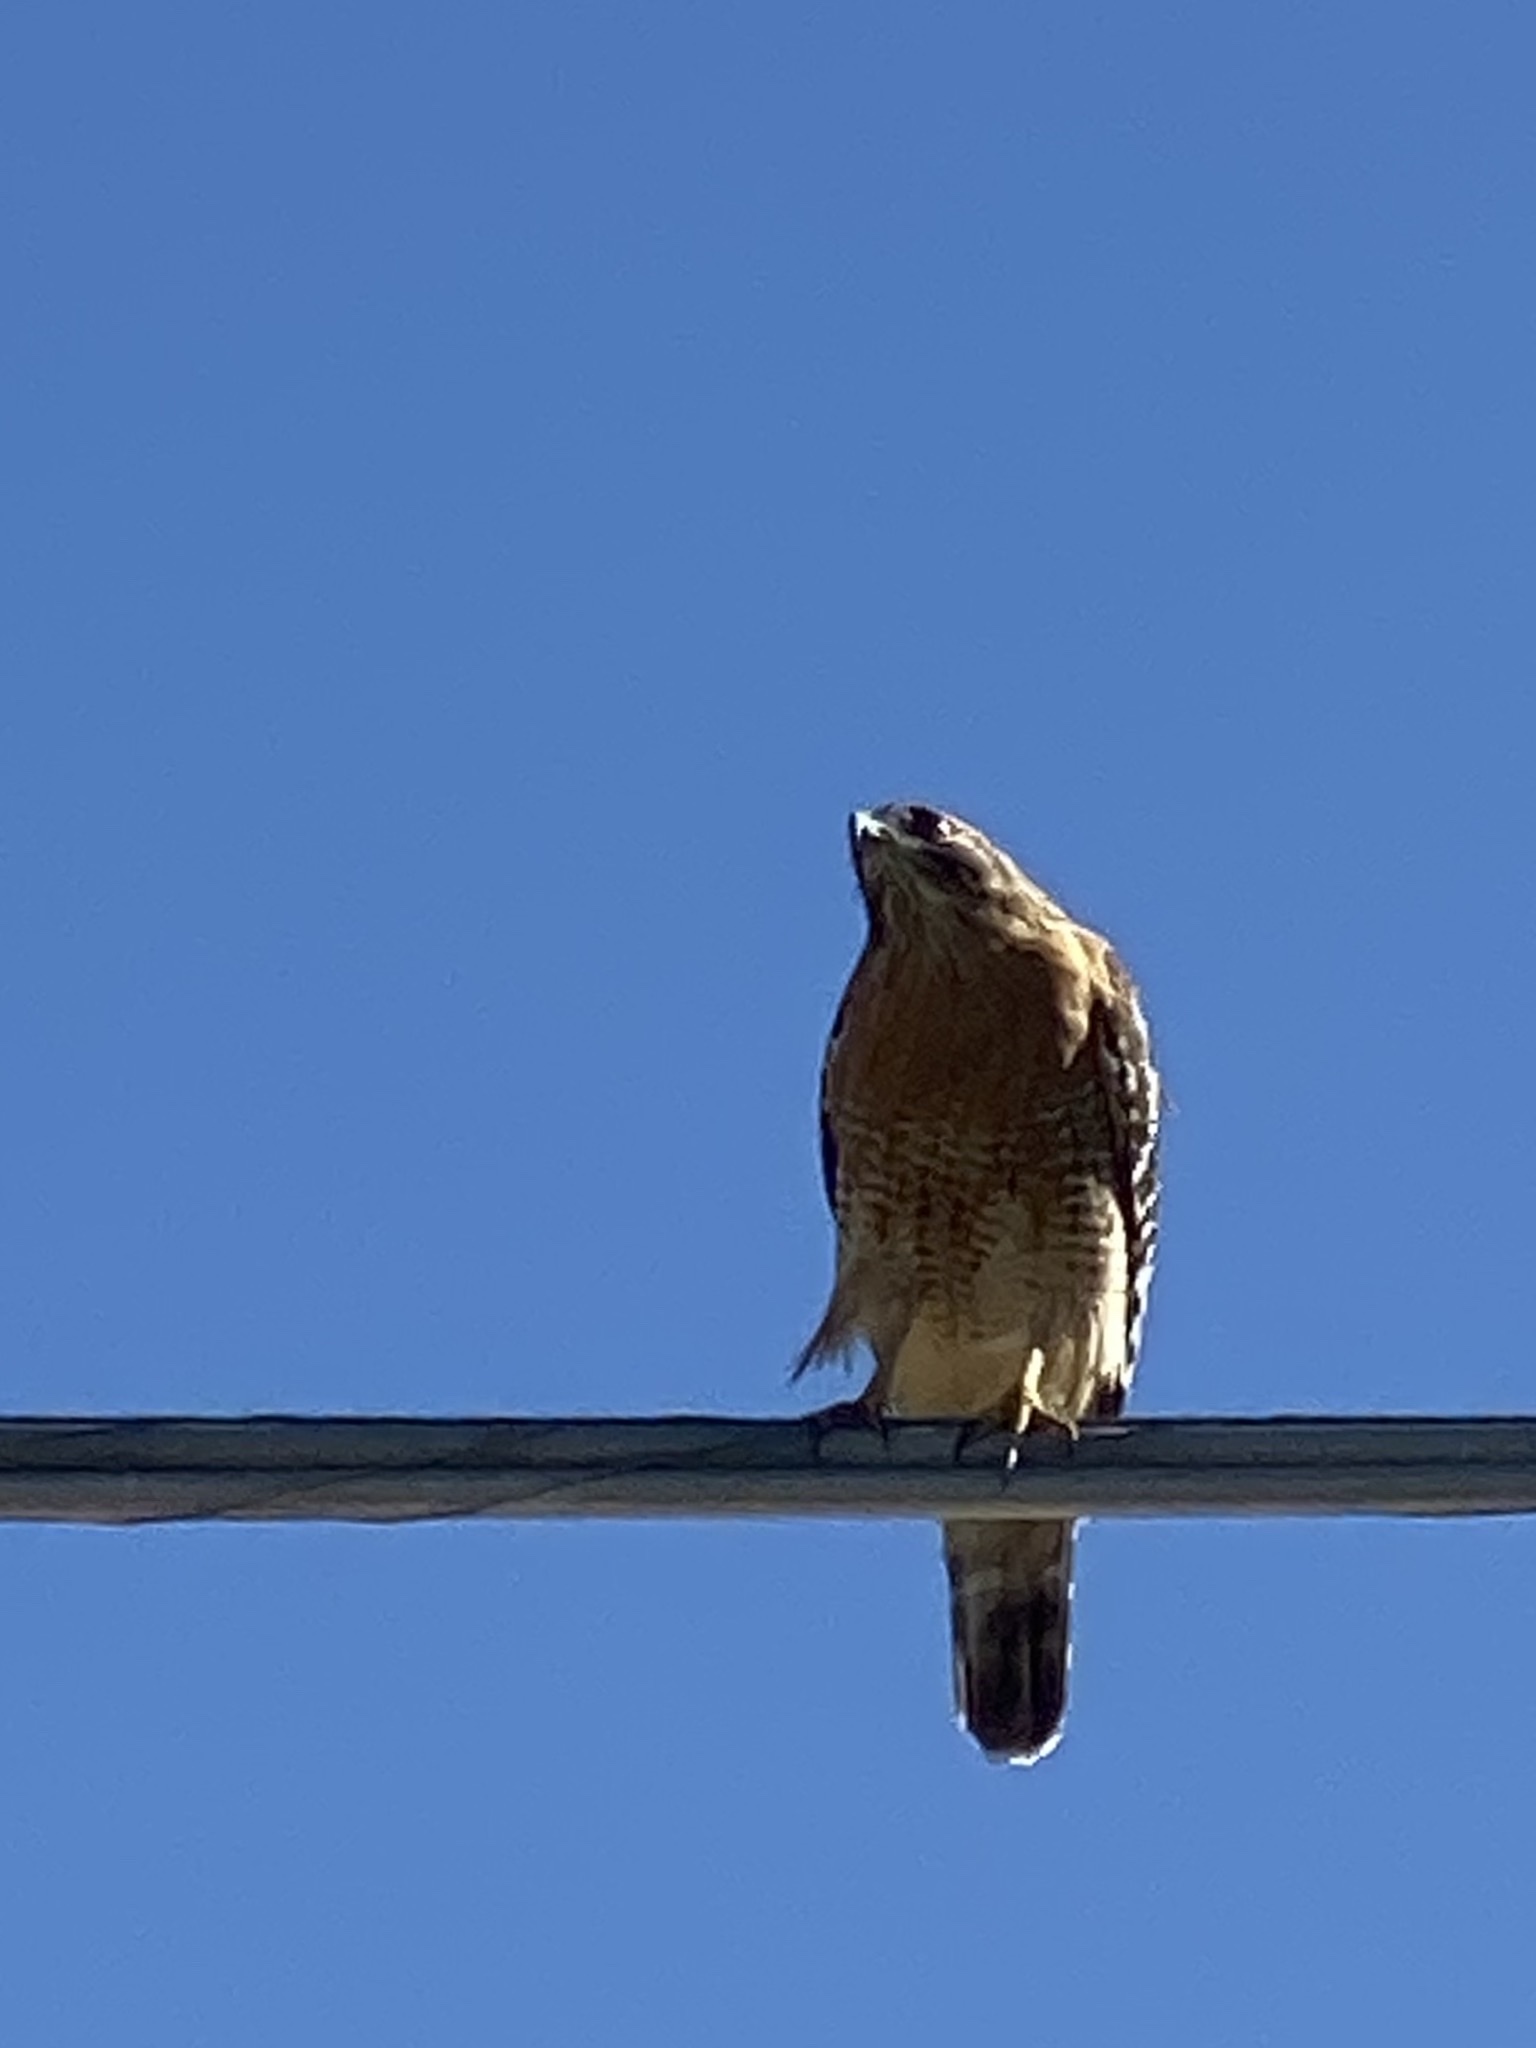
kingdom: Animalia
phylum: Chordata
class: Aves
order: Accipitriformes
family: Accipitridae
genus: Buteo
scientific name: Buteo lineatus
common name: Red-shouldered hawk
